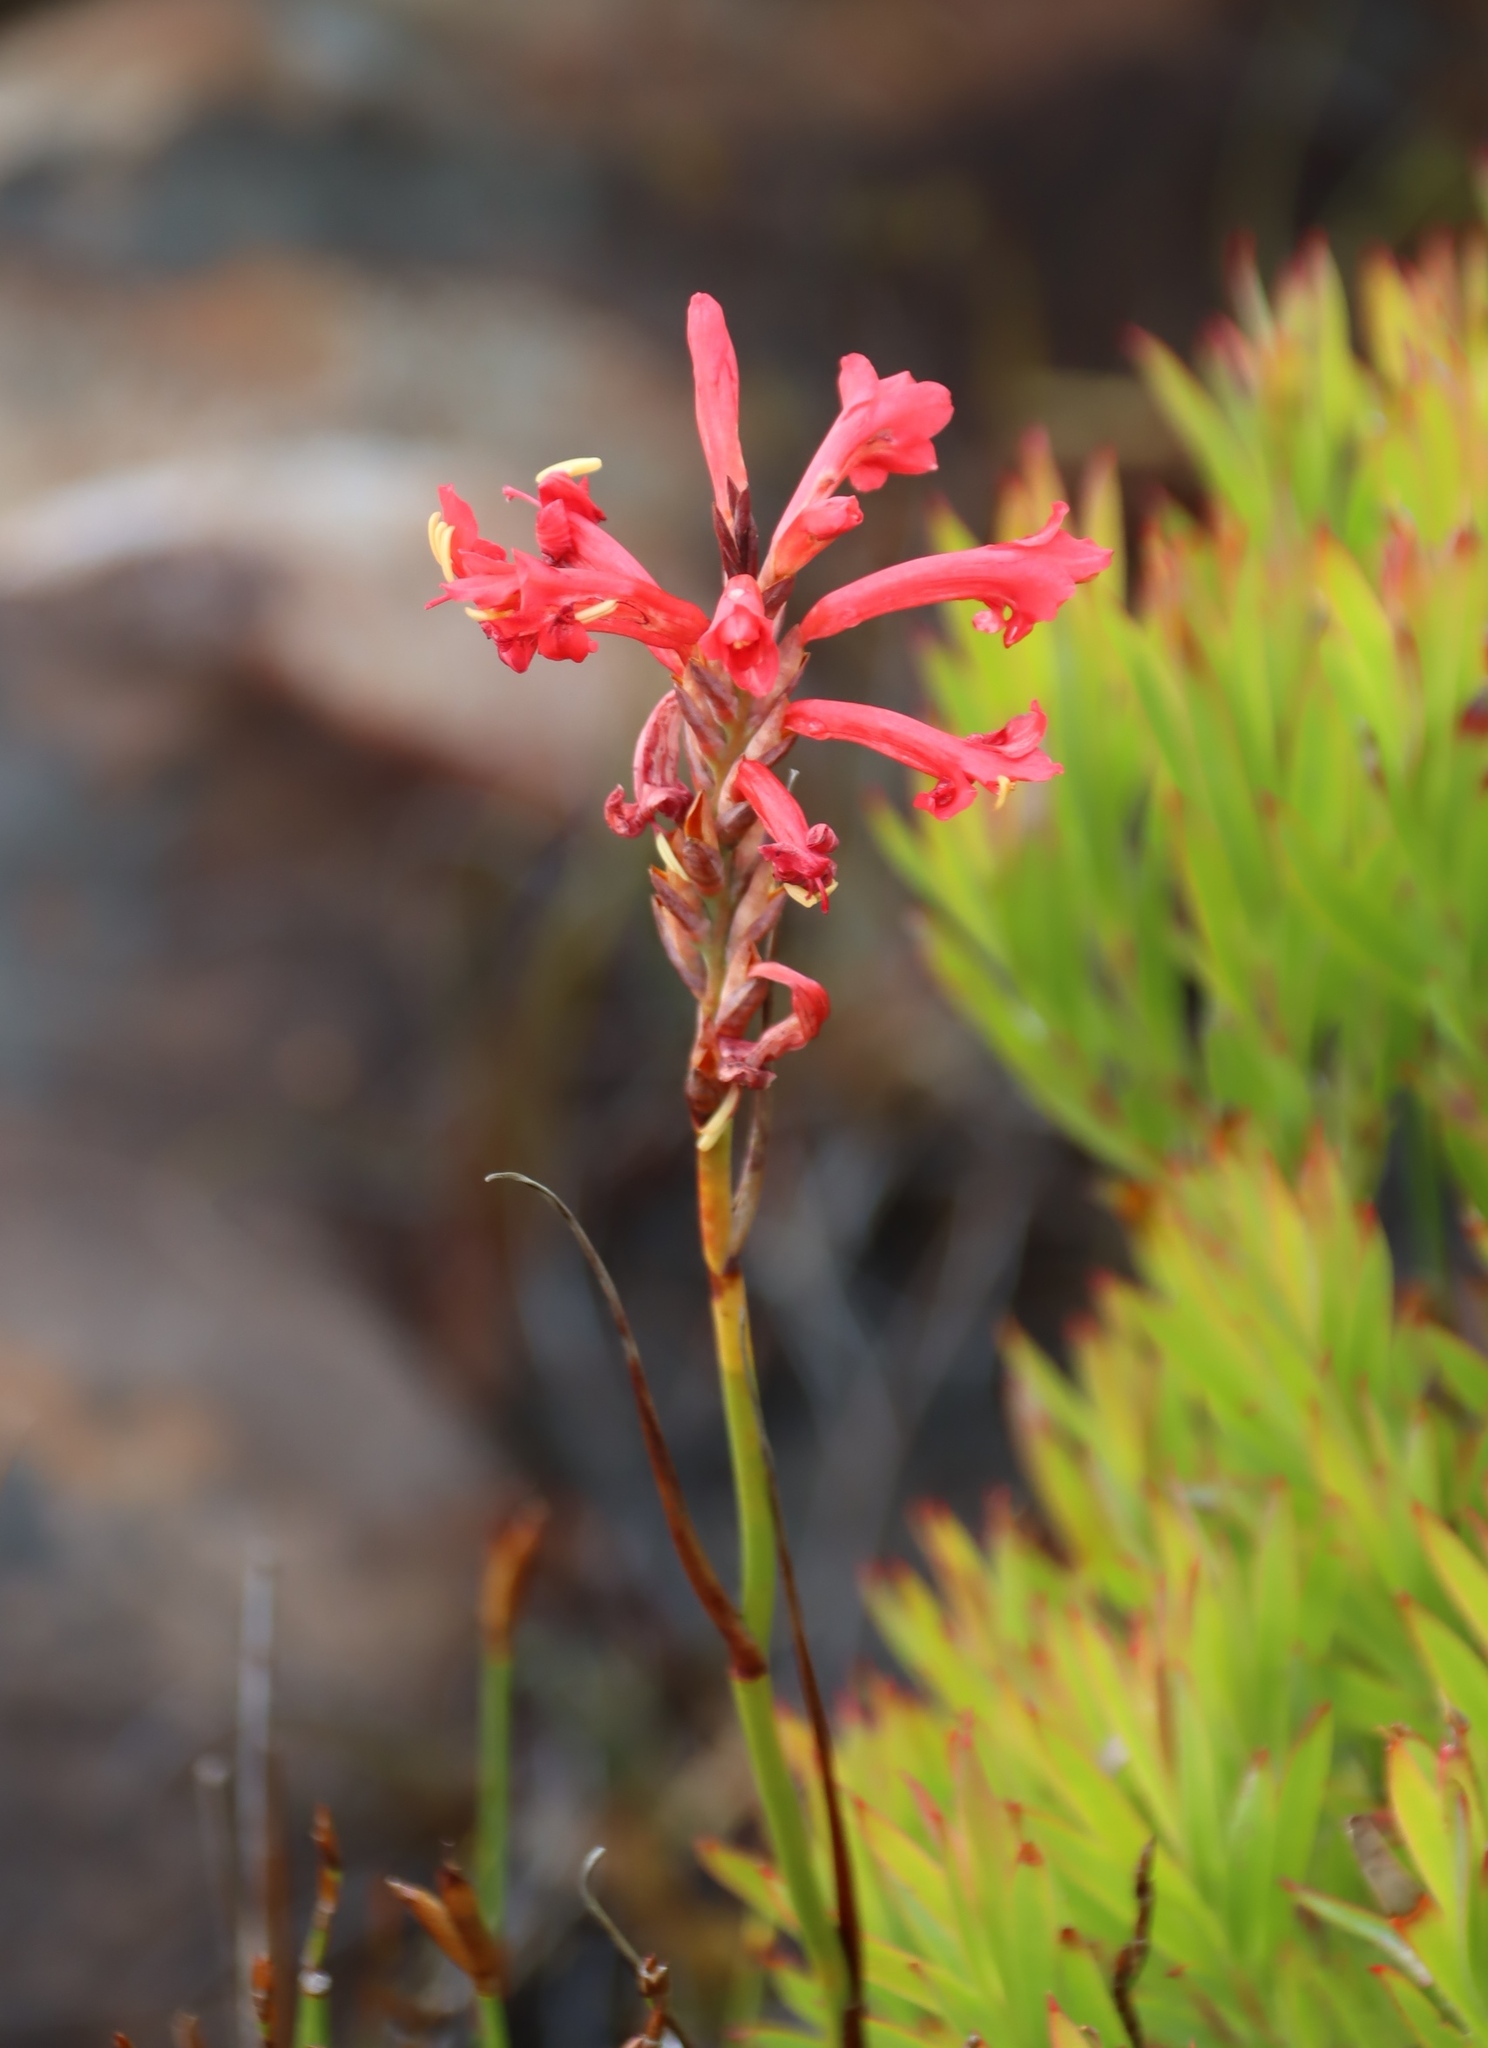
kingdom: Plantae
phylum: Tracheophyta
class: Liliopsida
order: Asparagales
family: Iridaceae
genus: Tritoniopsis
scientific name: Tritoniopsis triticea
